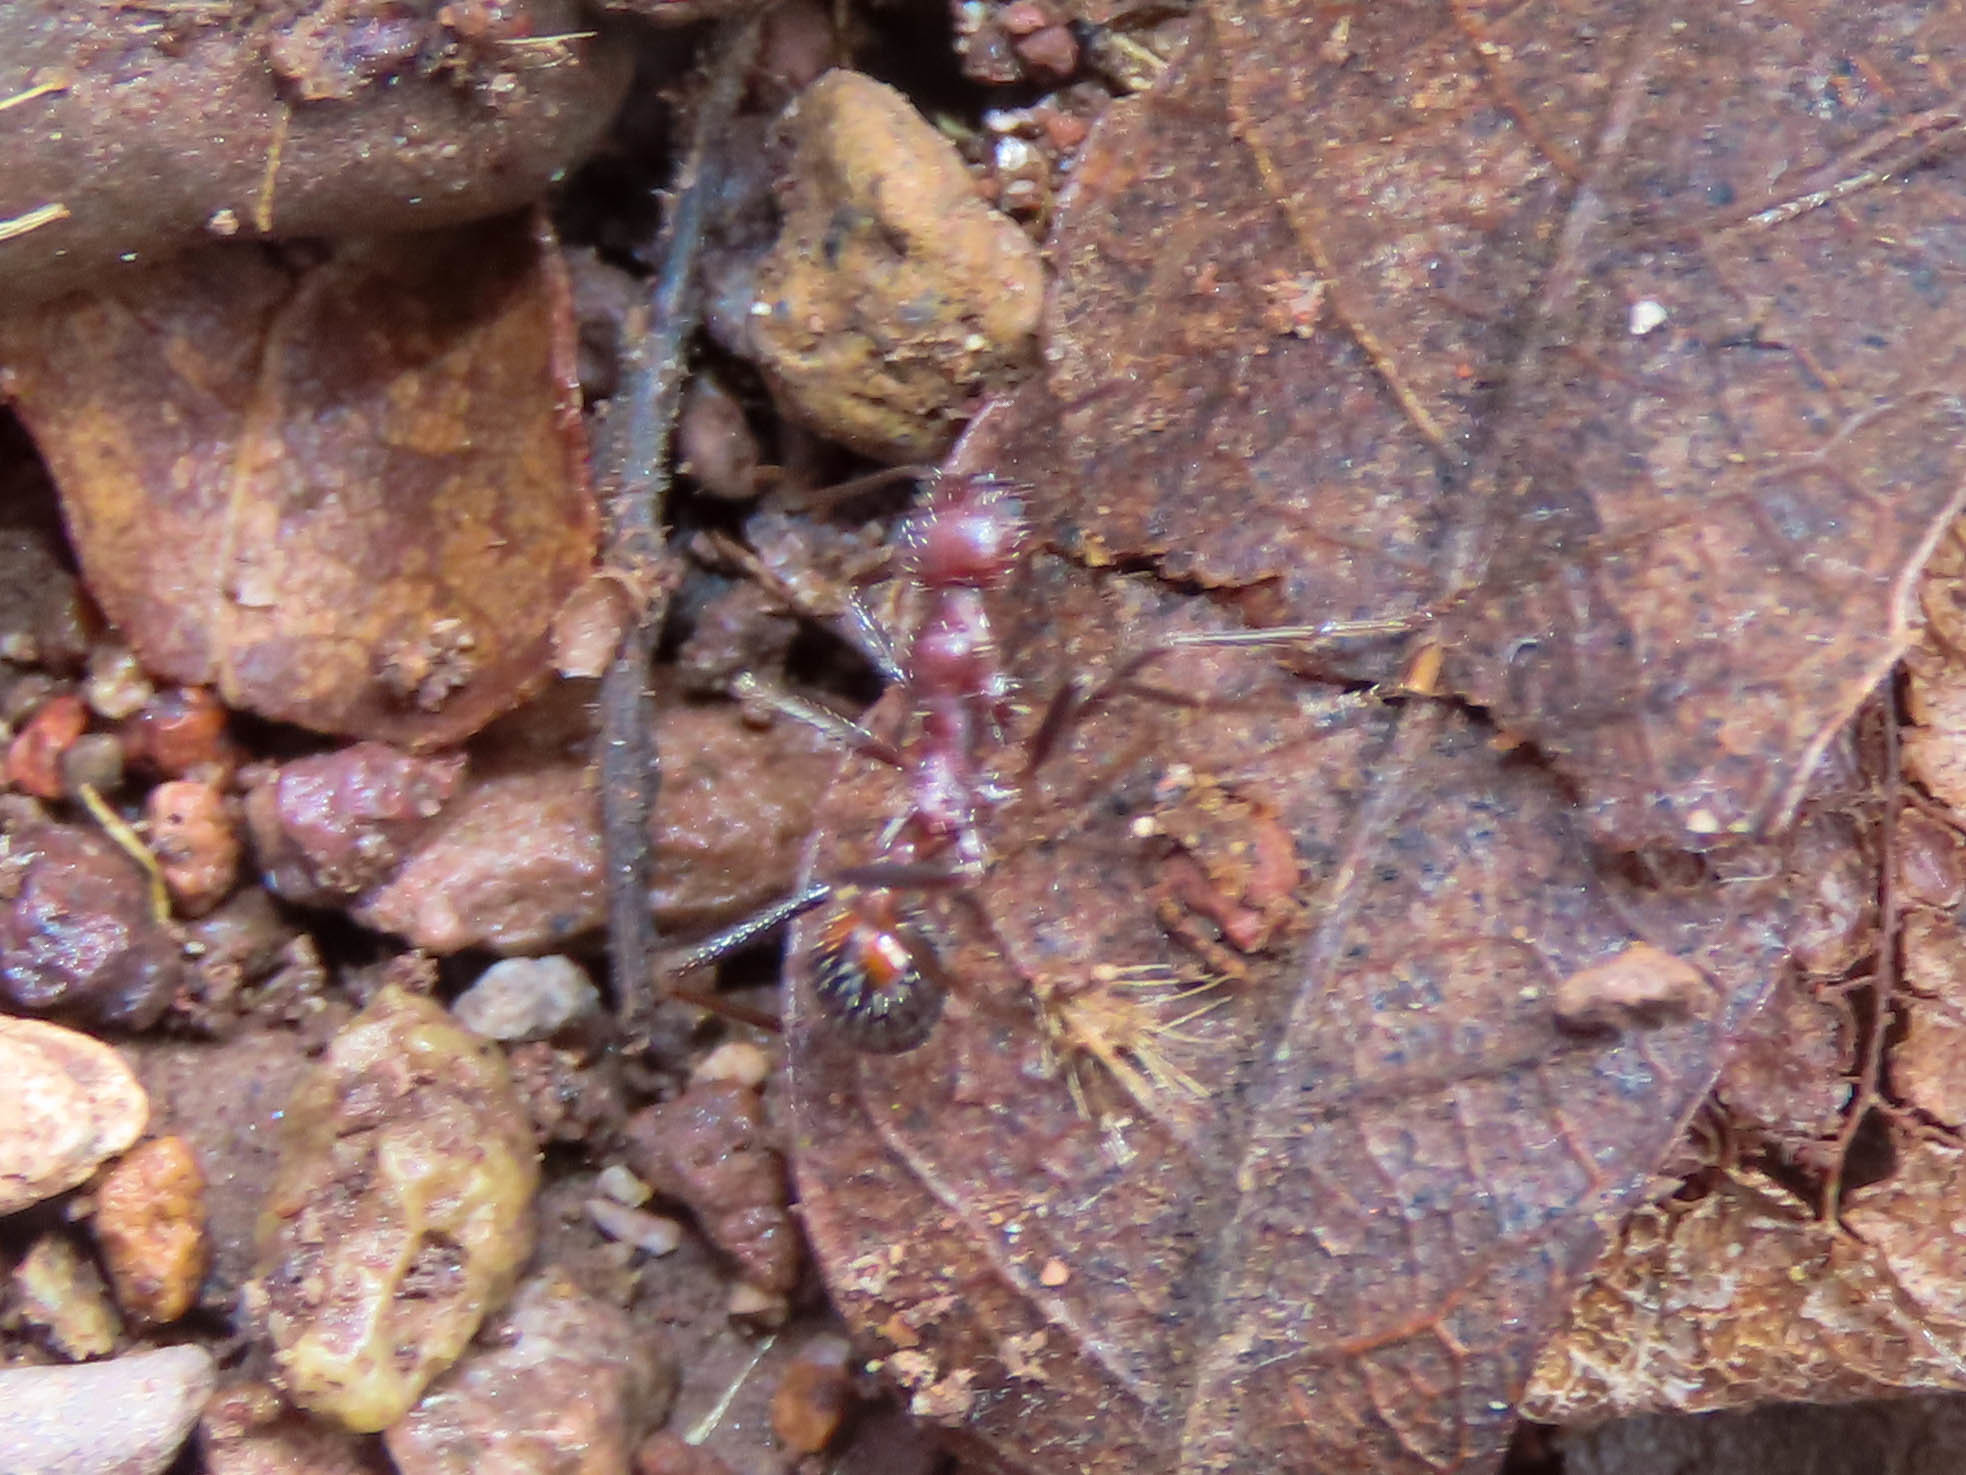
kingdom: Animalia
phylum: Arthropoda
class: Insecta
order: Hymenoptera
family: Formicidae
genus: Novomessor
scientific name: Novomessor albisetosa
